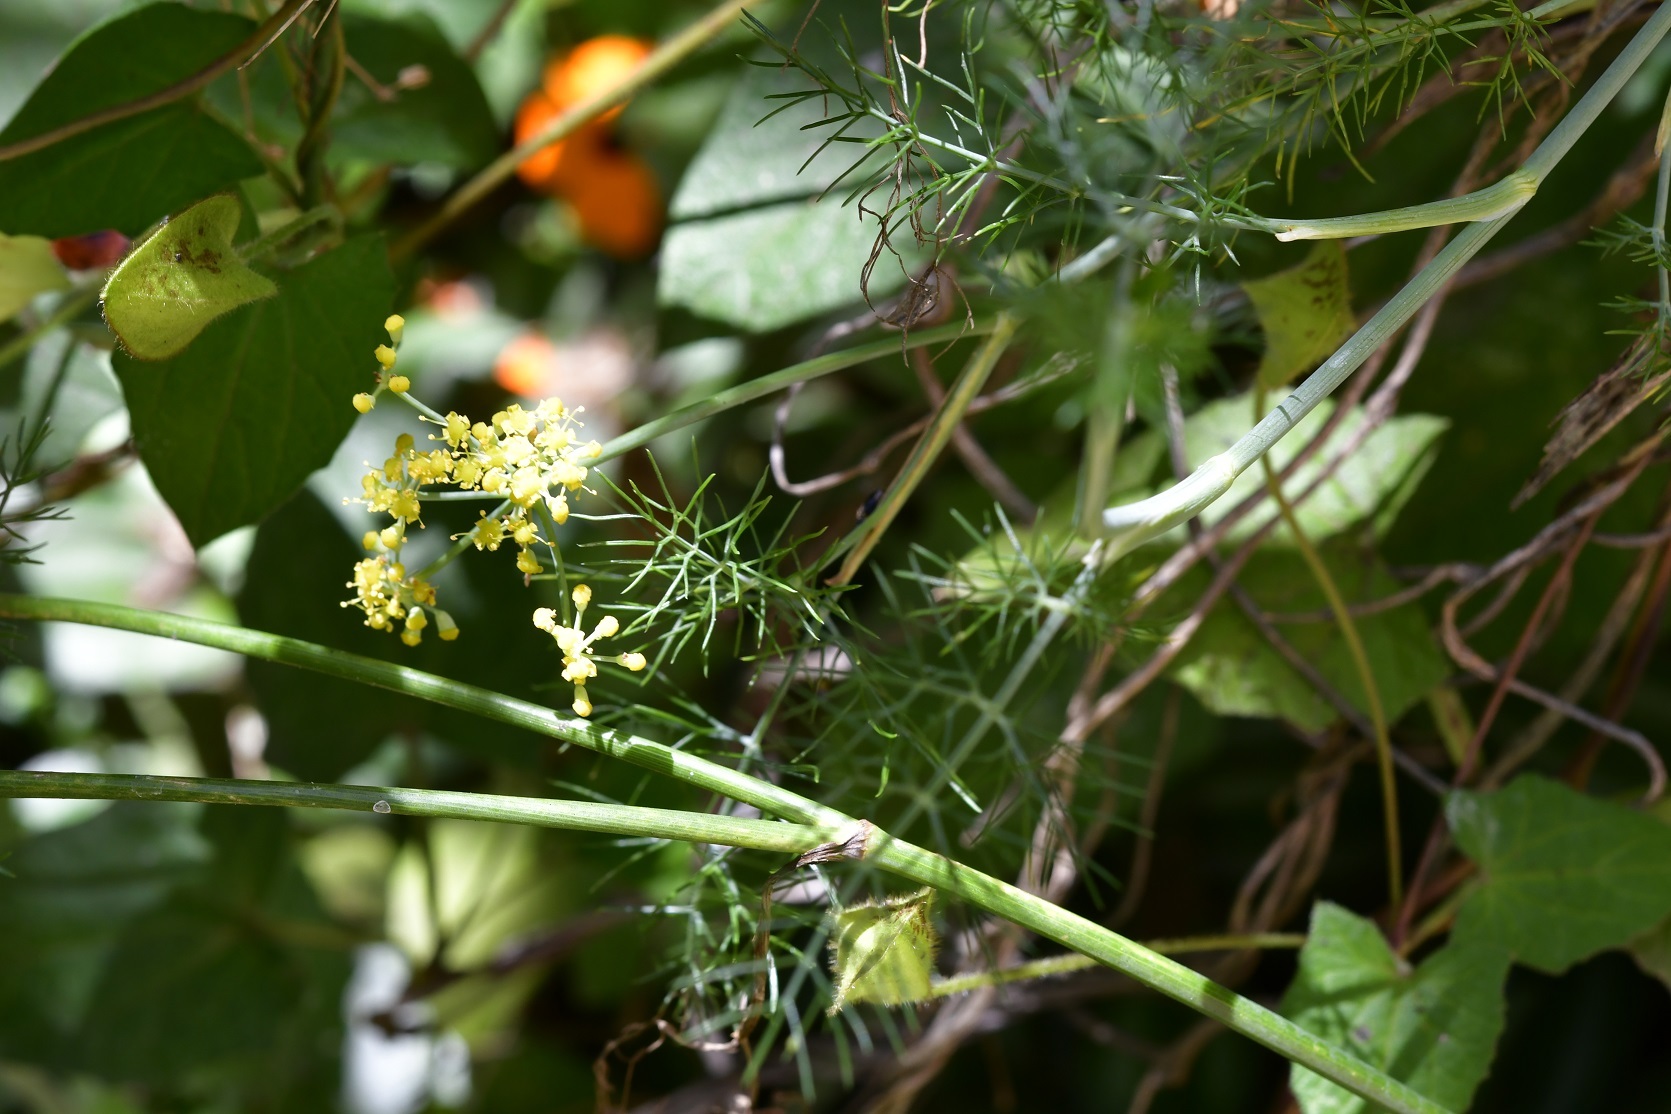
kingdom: Plantae
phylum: Tracheophyta
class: Magnoliopsida
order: Apiales
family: Apiaceae
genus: Foeniculum
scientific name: Foeniculum vulgare
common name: Fennel
